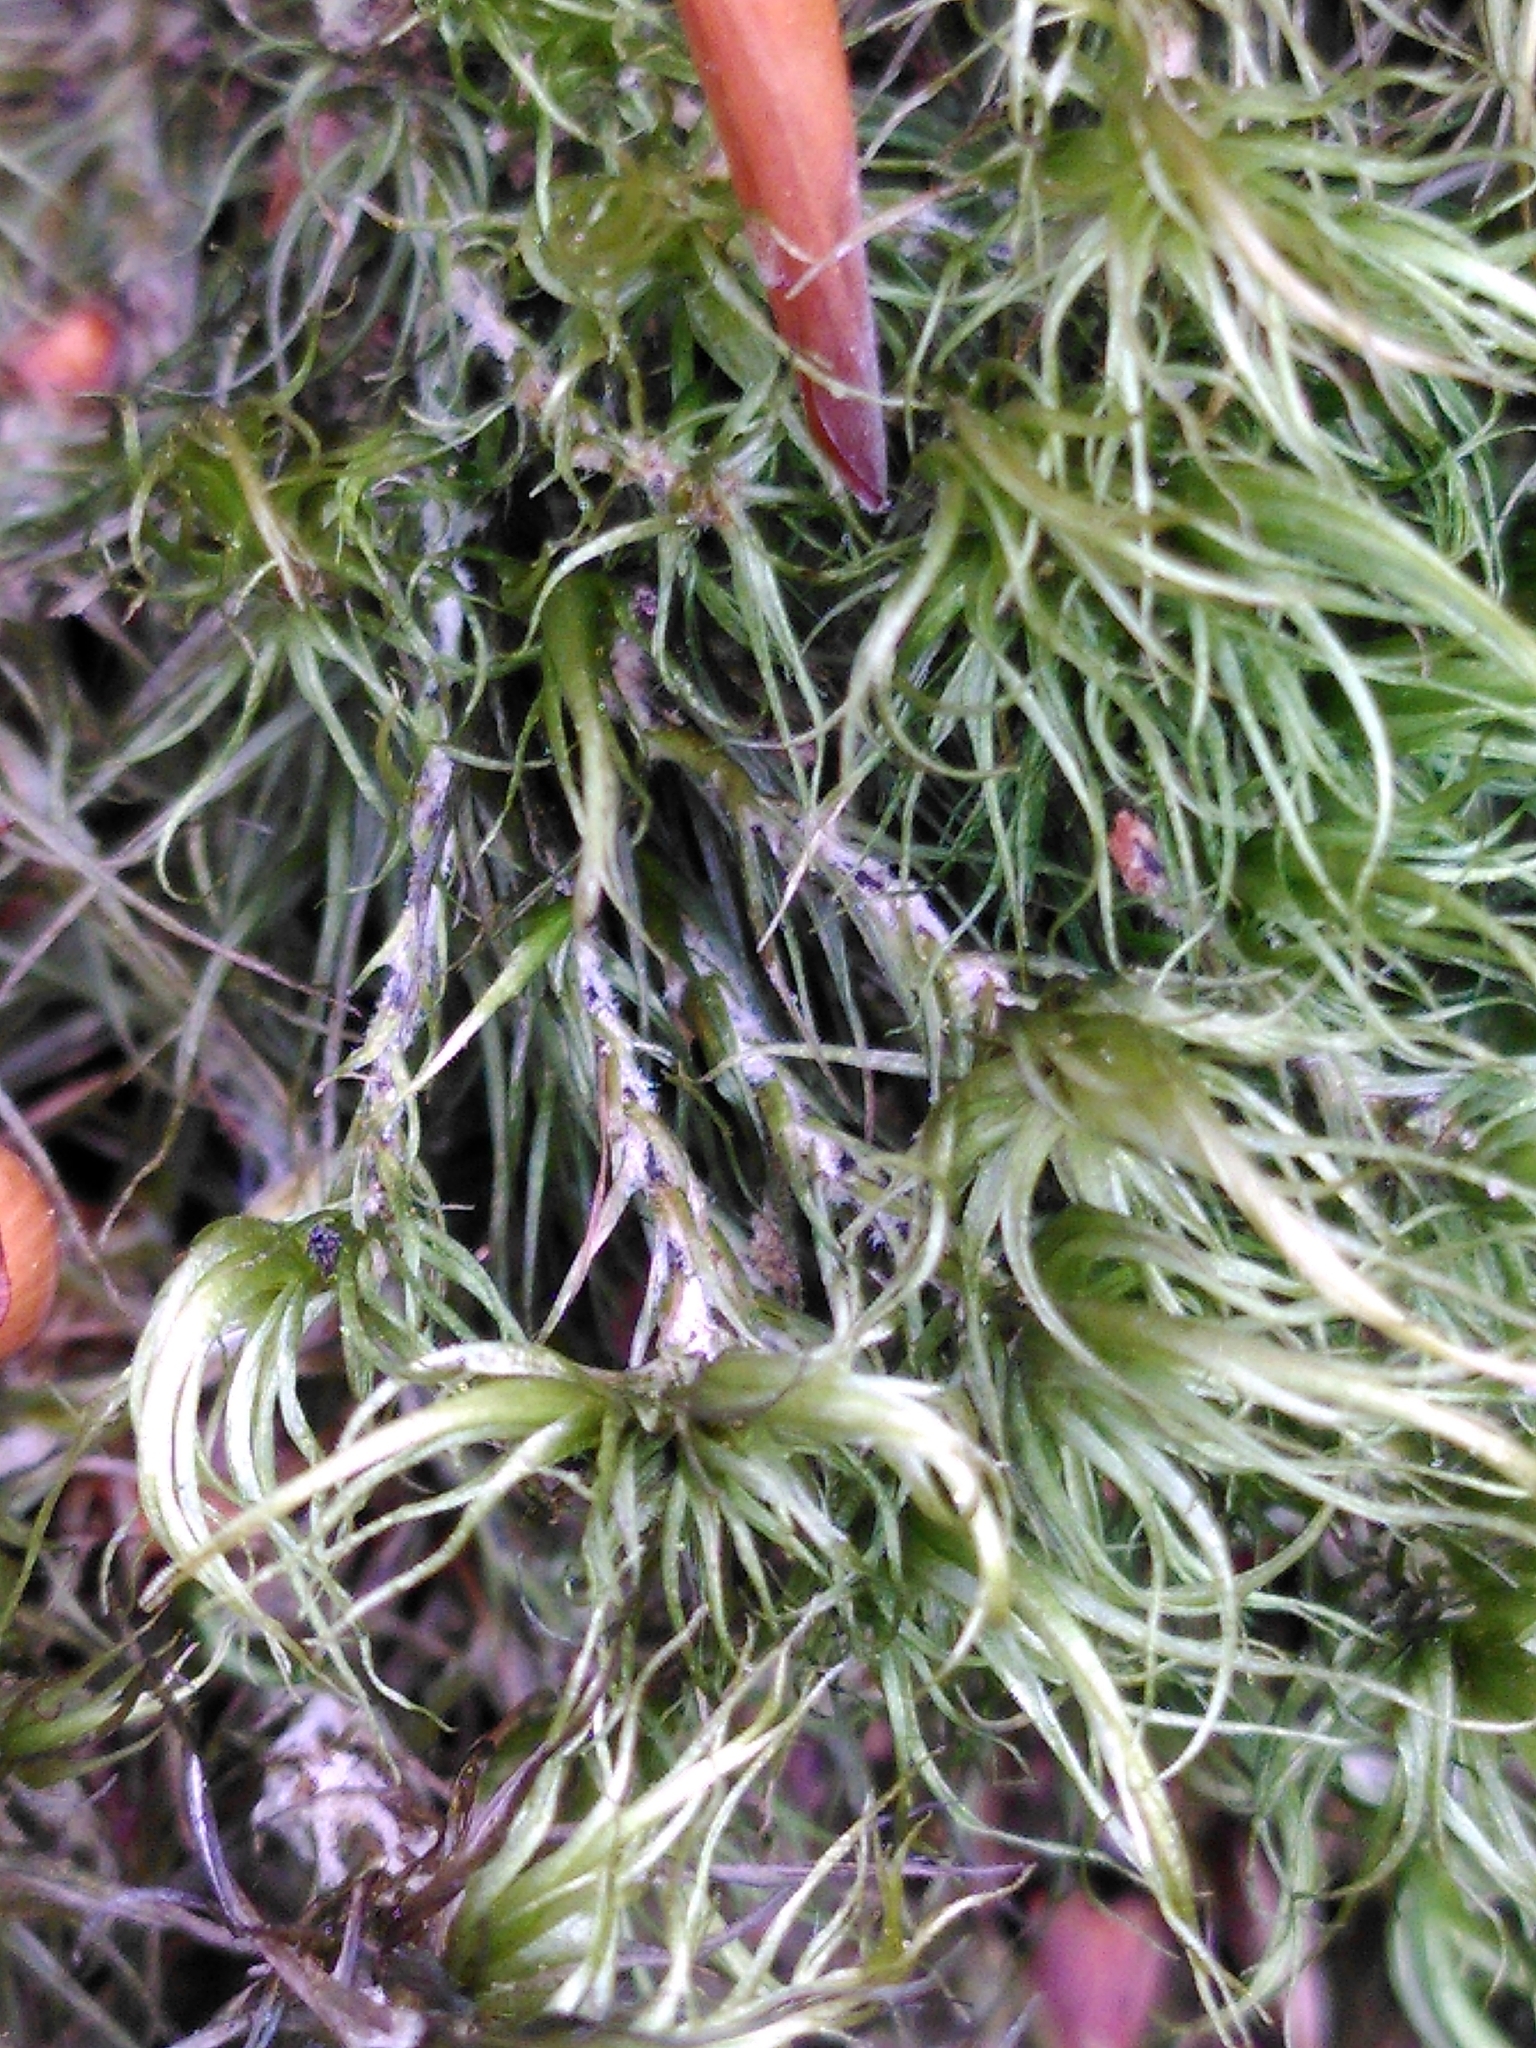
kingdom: Plantae
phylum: Bryophyta
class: Bryopsida
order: Dicranales
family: Dicranaceae
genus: Dicranum
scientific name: Dicranum scoparium
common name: Broom fork-moss
